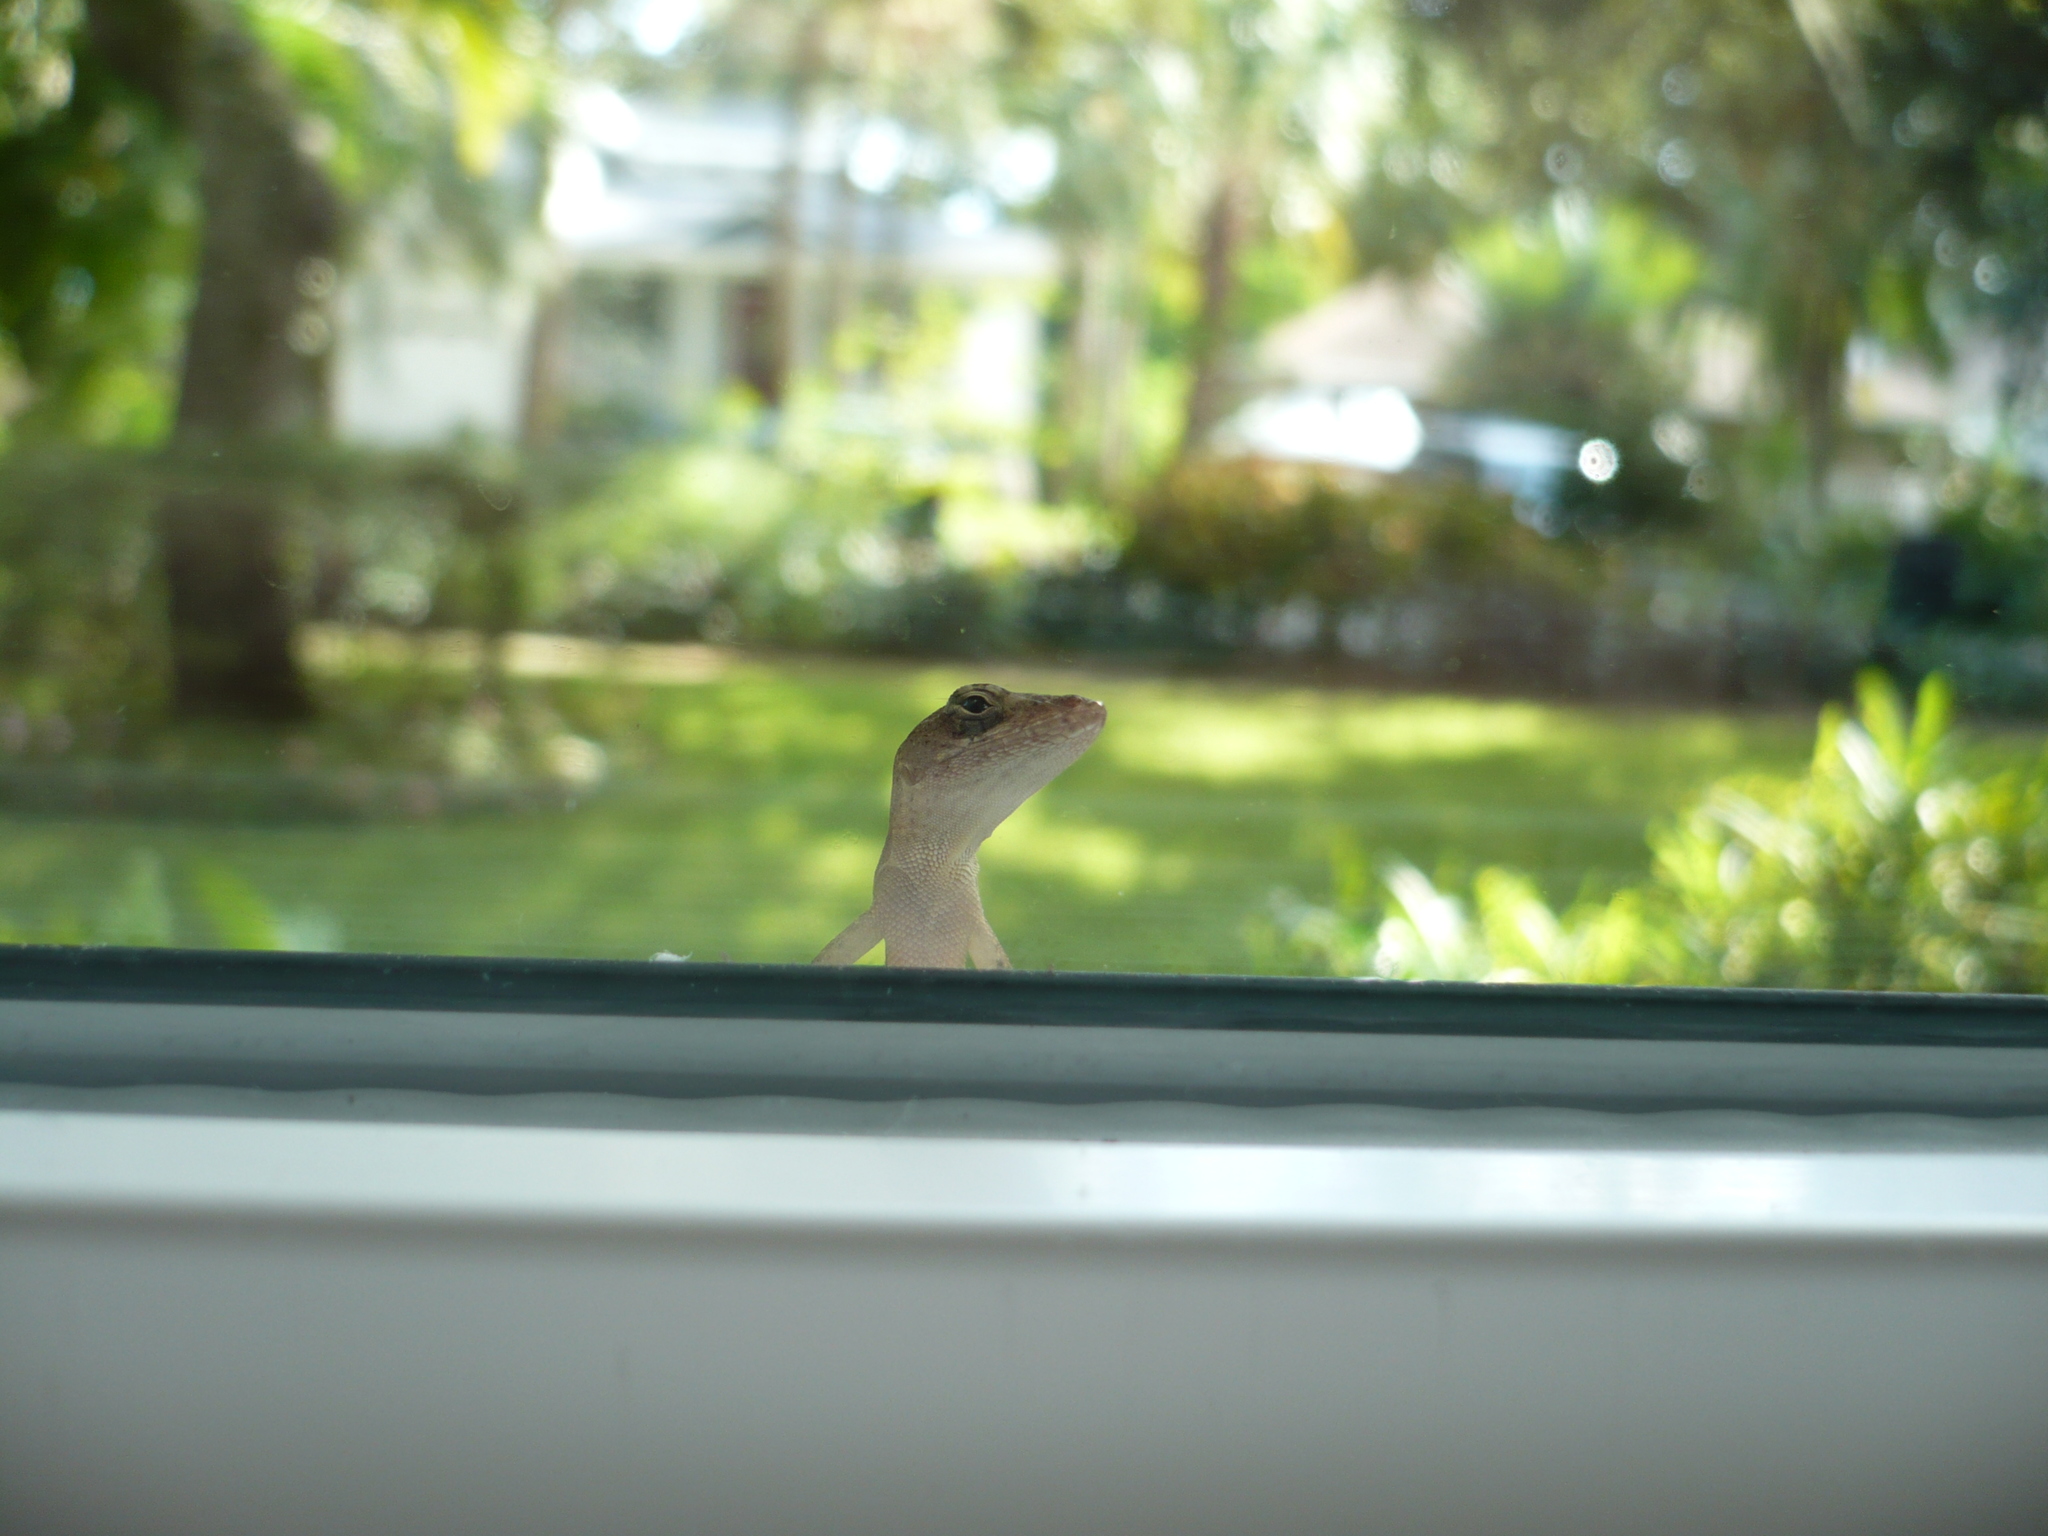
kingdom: Animalia
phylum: Chordata
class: Squamata
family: Dactyloidae
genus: Anolis
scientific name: Anolis sagrei
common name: Brown anole
